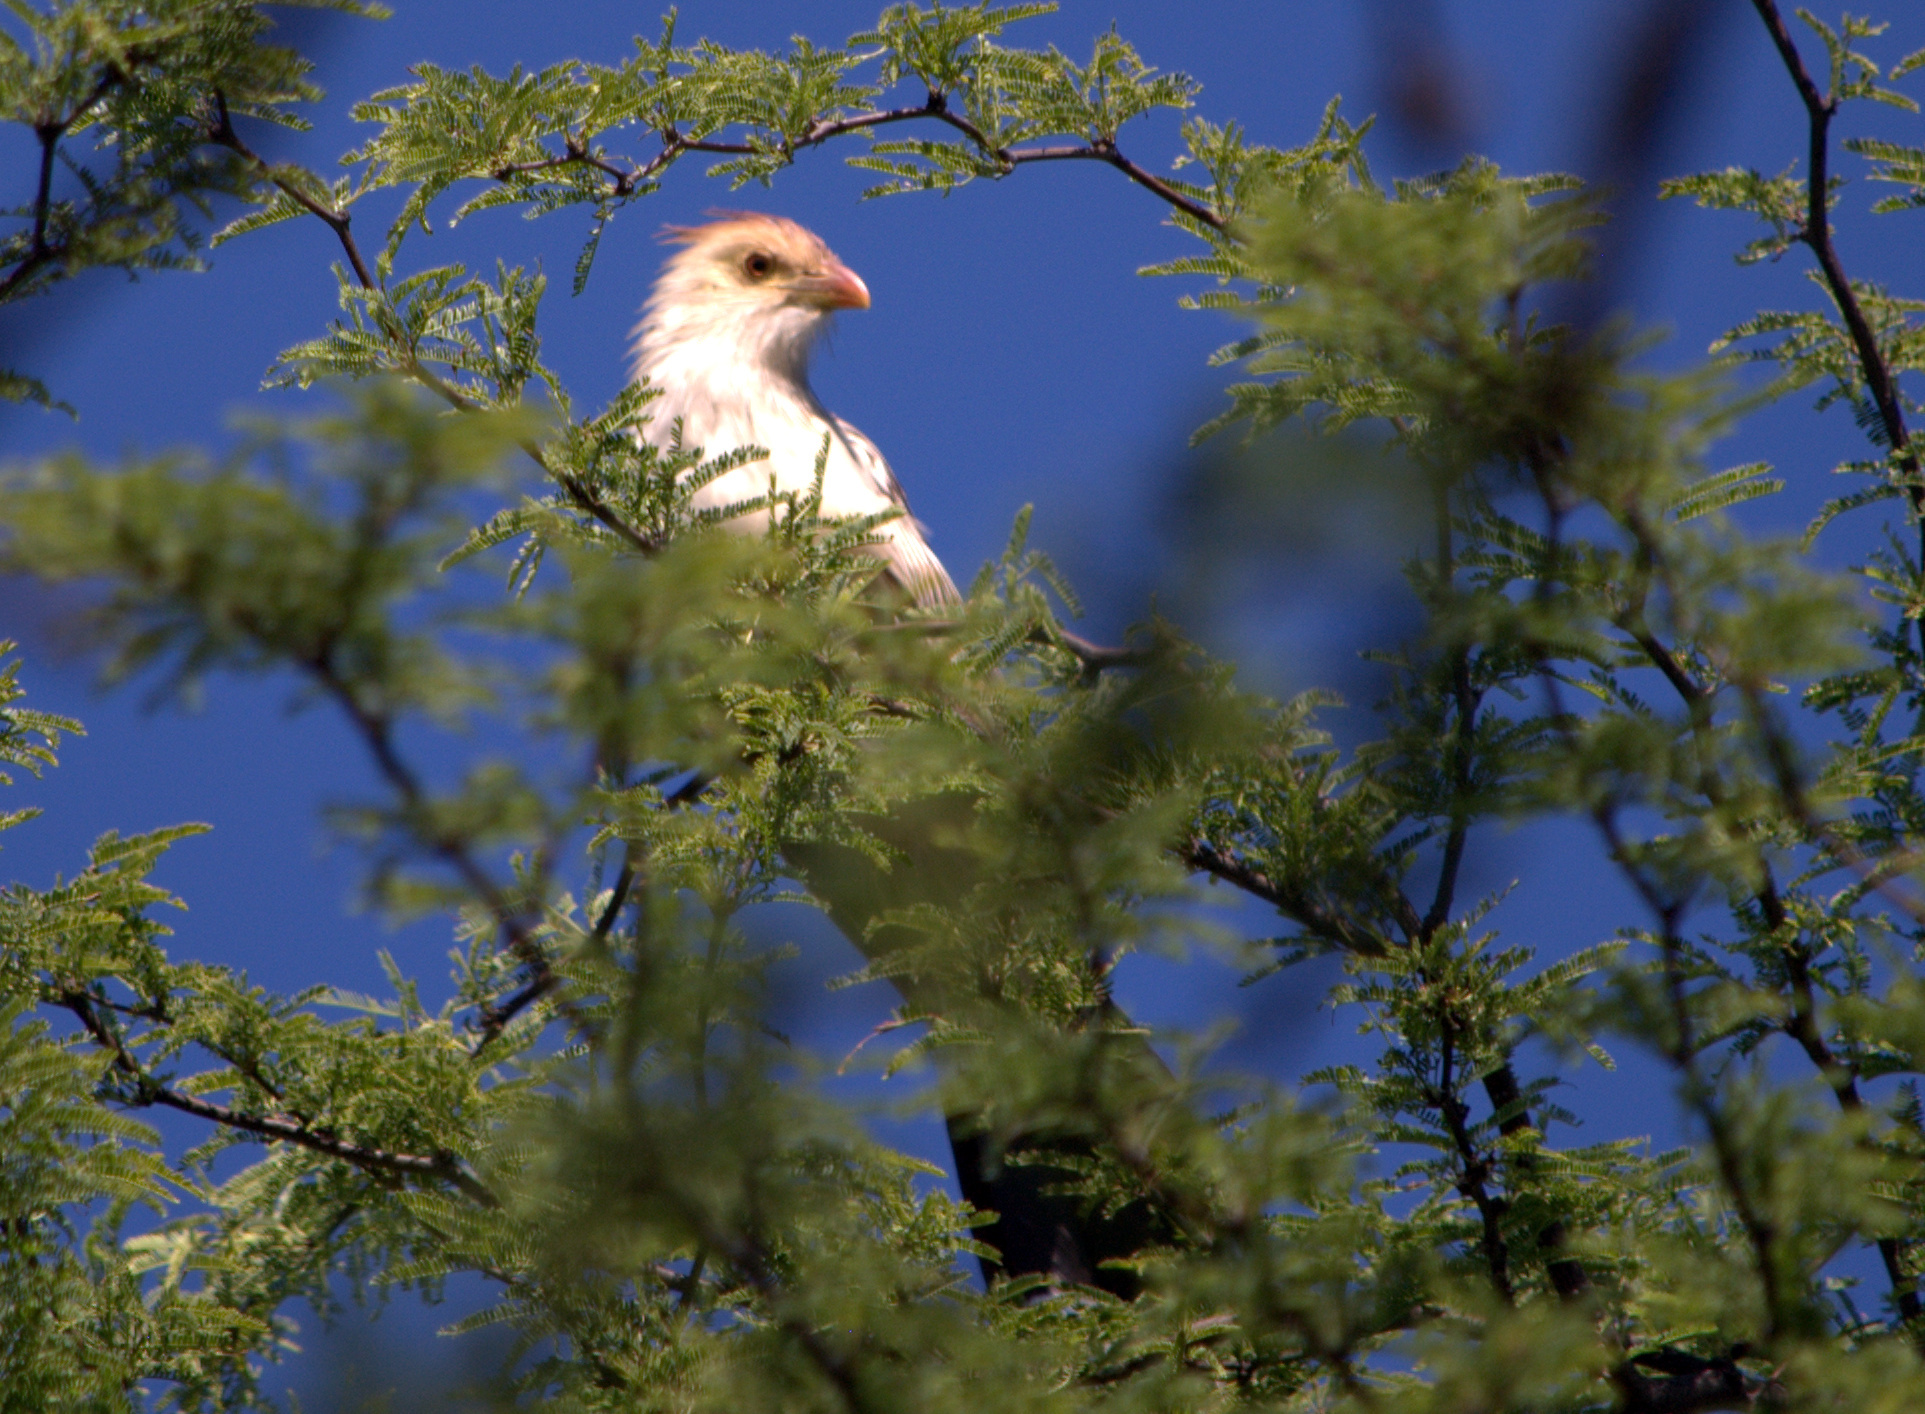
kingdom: Animalia
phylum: Chordata
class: Aves
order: Cuculiformes
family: Cuculidae
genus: Guira
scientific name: Guira guira
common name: Guira cuckoo
